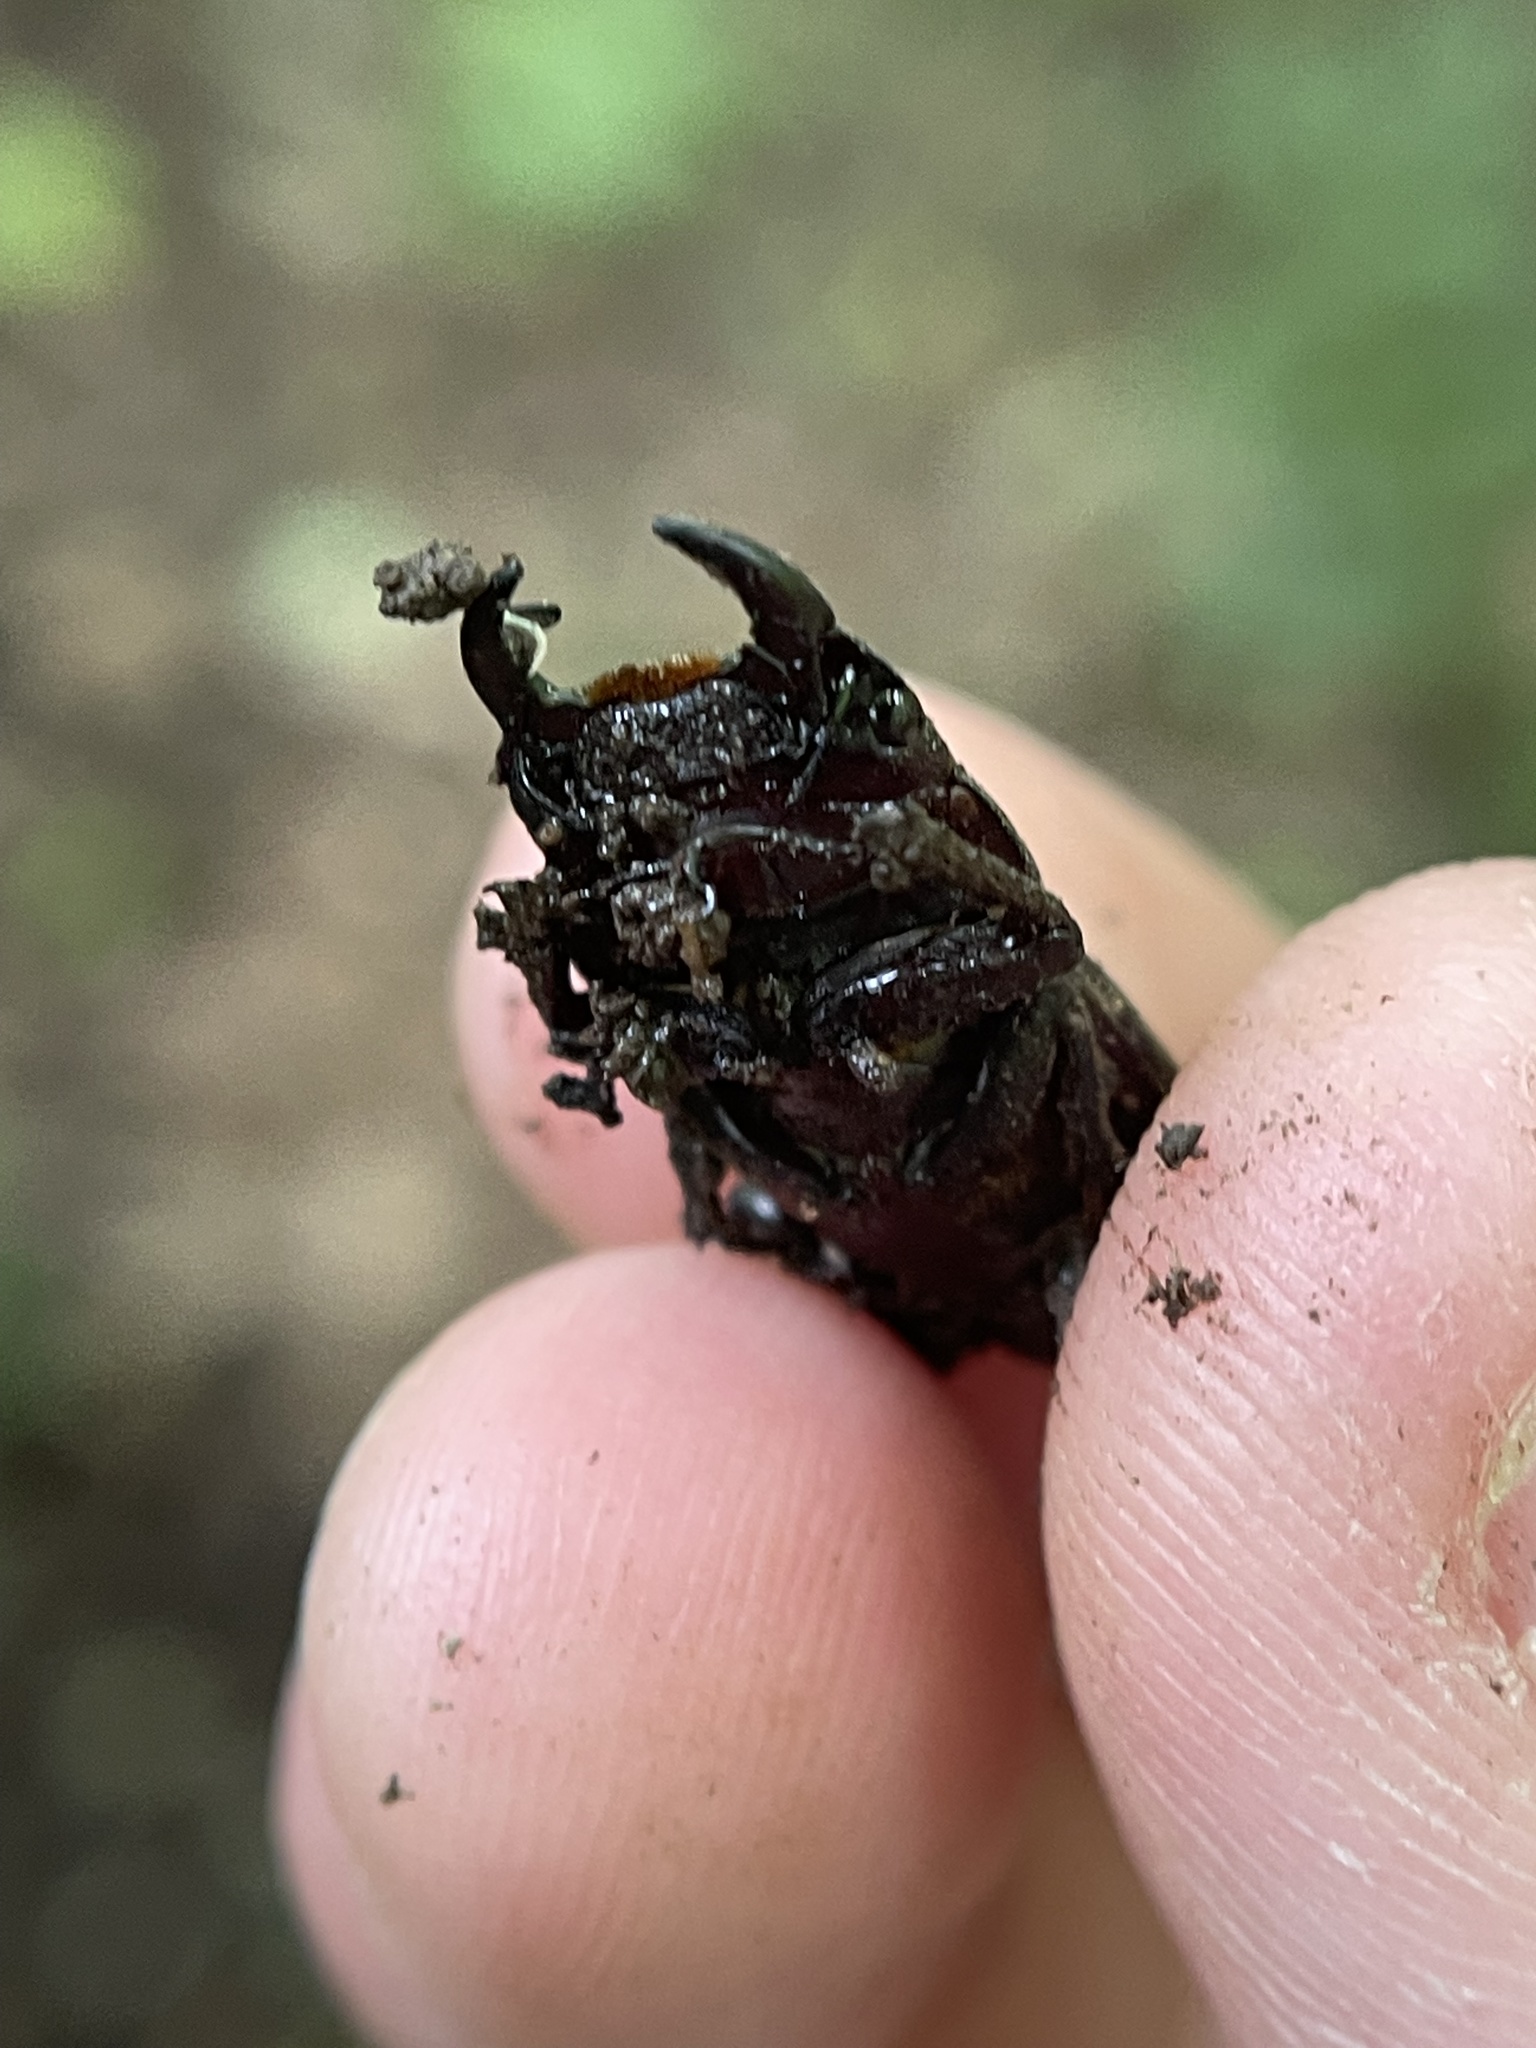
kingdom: Animalia
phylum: Arthropoda
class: Insecta
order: Coleoptera
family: Lucanidae
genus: Dorcus
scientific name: Dorcus parallelus
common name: Antelope beetle
